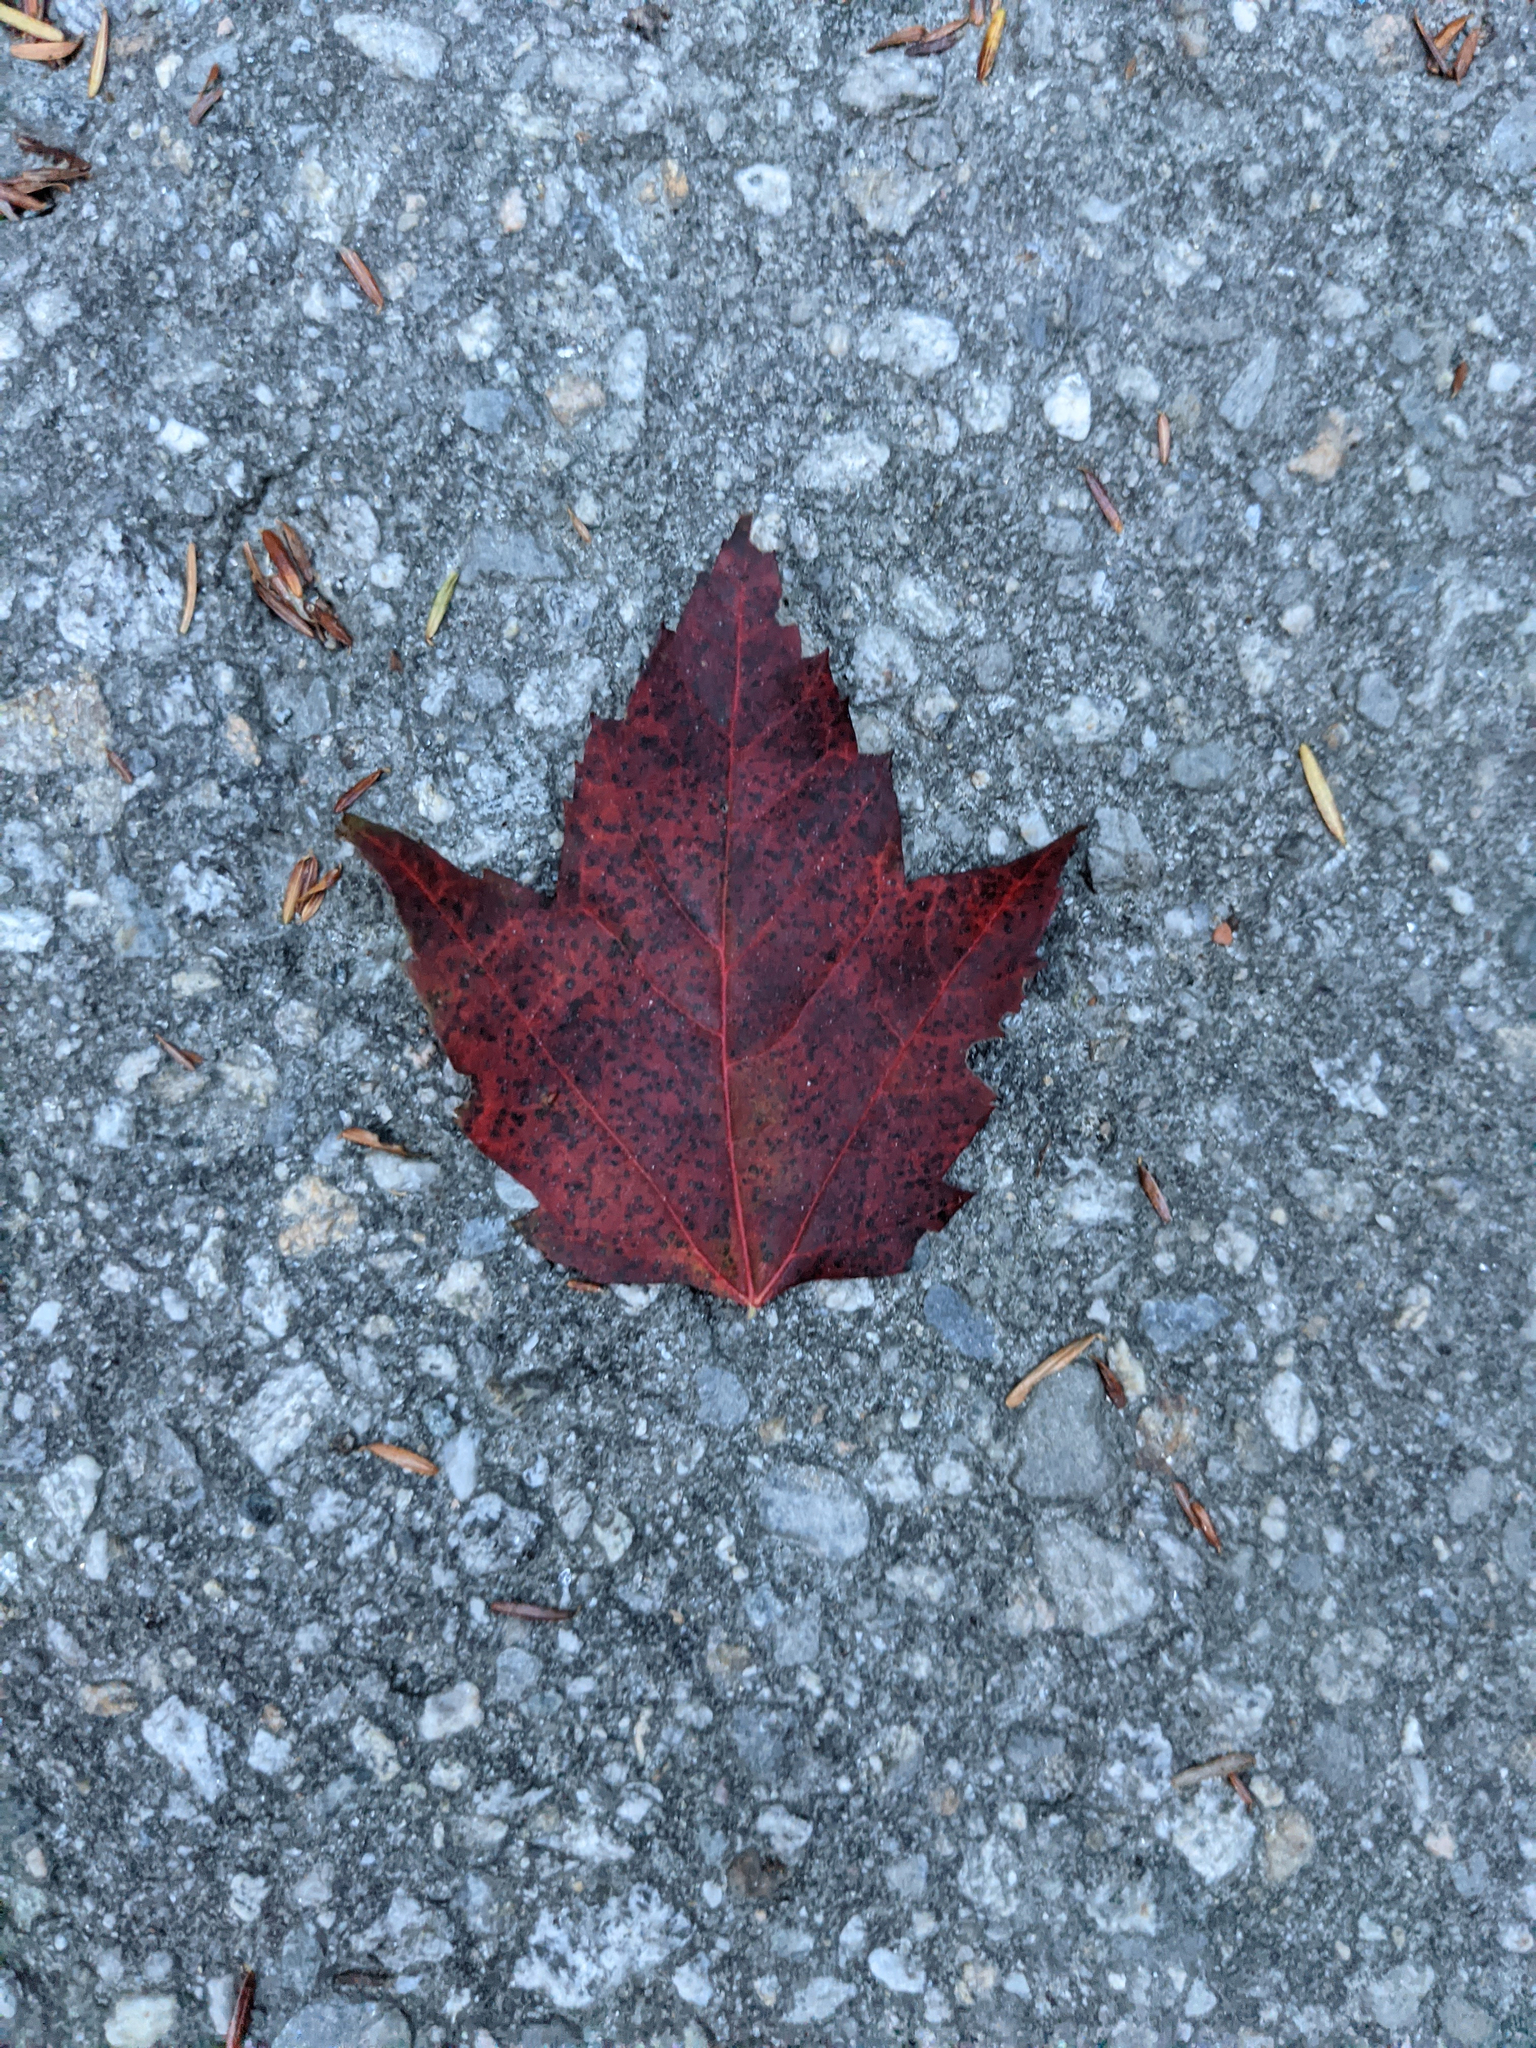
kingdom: Plantae
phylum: Tracheophyta
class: Magnoliopsida
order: Sapindales
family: Sapindaceae
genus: Acer
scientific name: Acer rubrum
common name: Red maple
